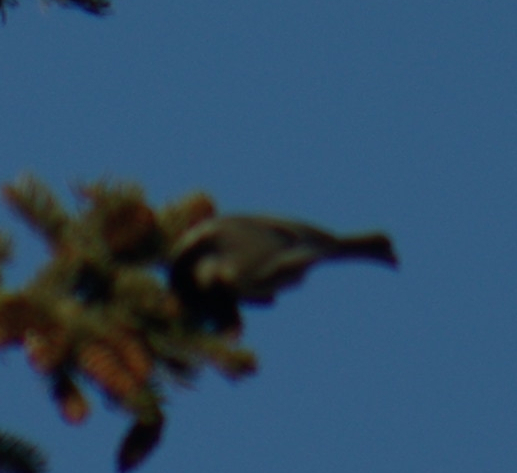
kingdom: Animalia
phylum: Chordata
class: Aves
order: Passeriformes
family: Paridae
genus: Poecile
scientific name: Poecile atricapillus
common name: Black-capped chickadee
